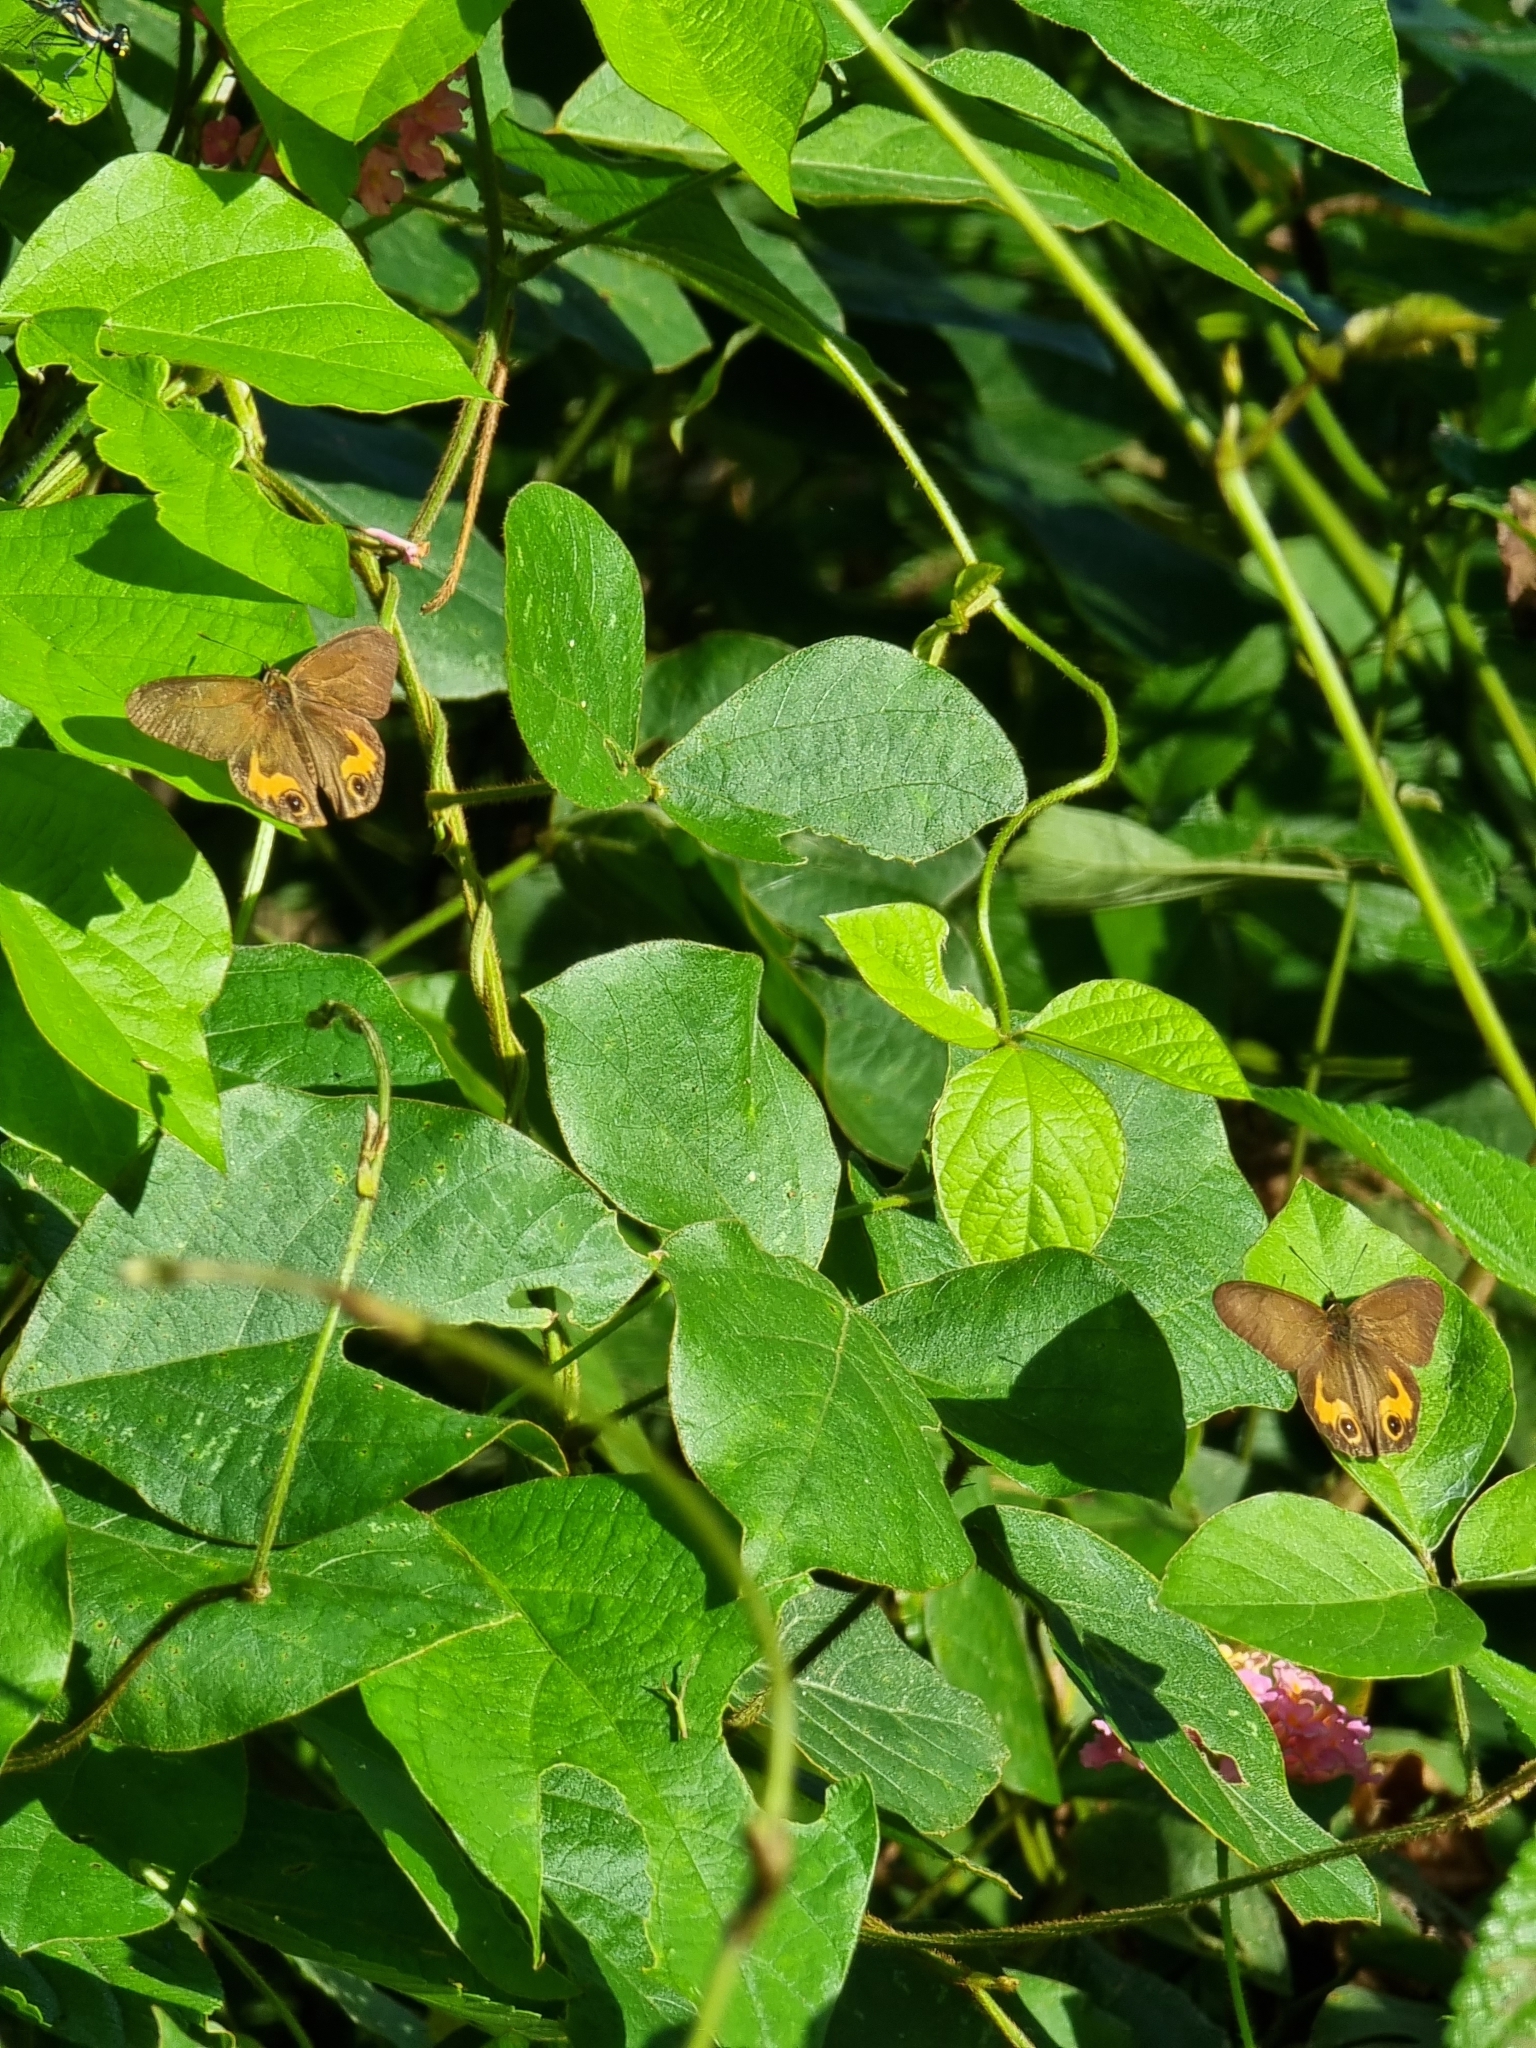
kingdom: Animalia
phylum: Arthropoda
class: Insecta
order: Lepidoptera
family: Nymphalidae
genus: Hypocysta
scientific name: Hypocysta metirius
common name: Brown ringlet
